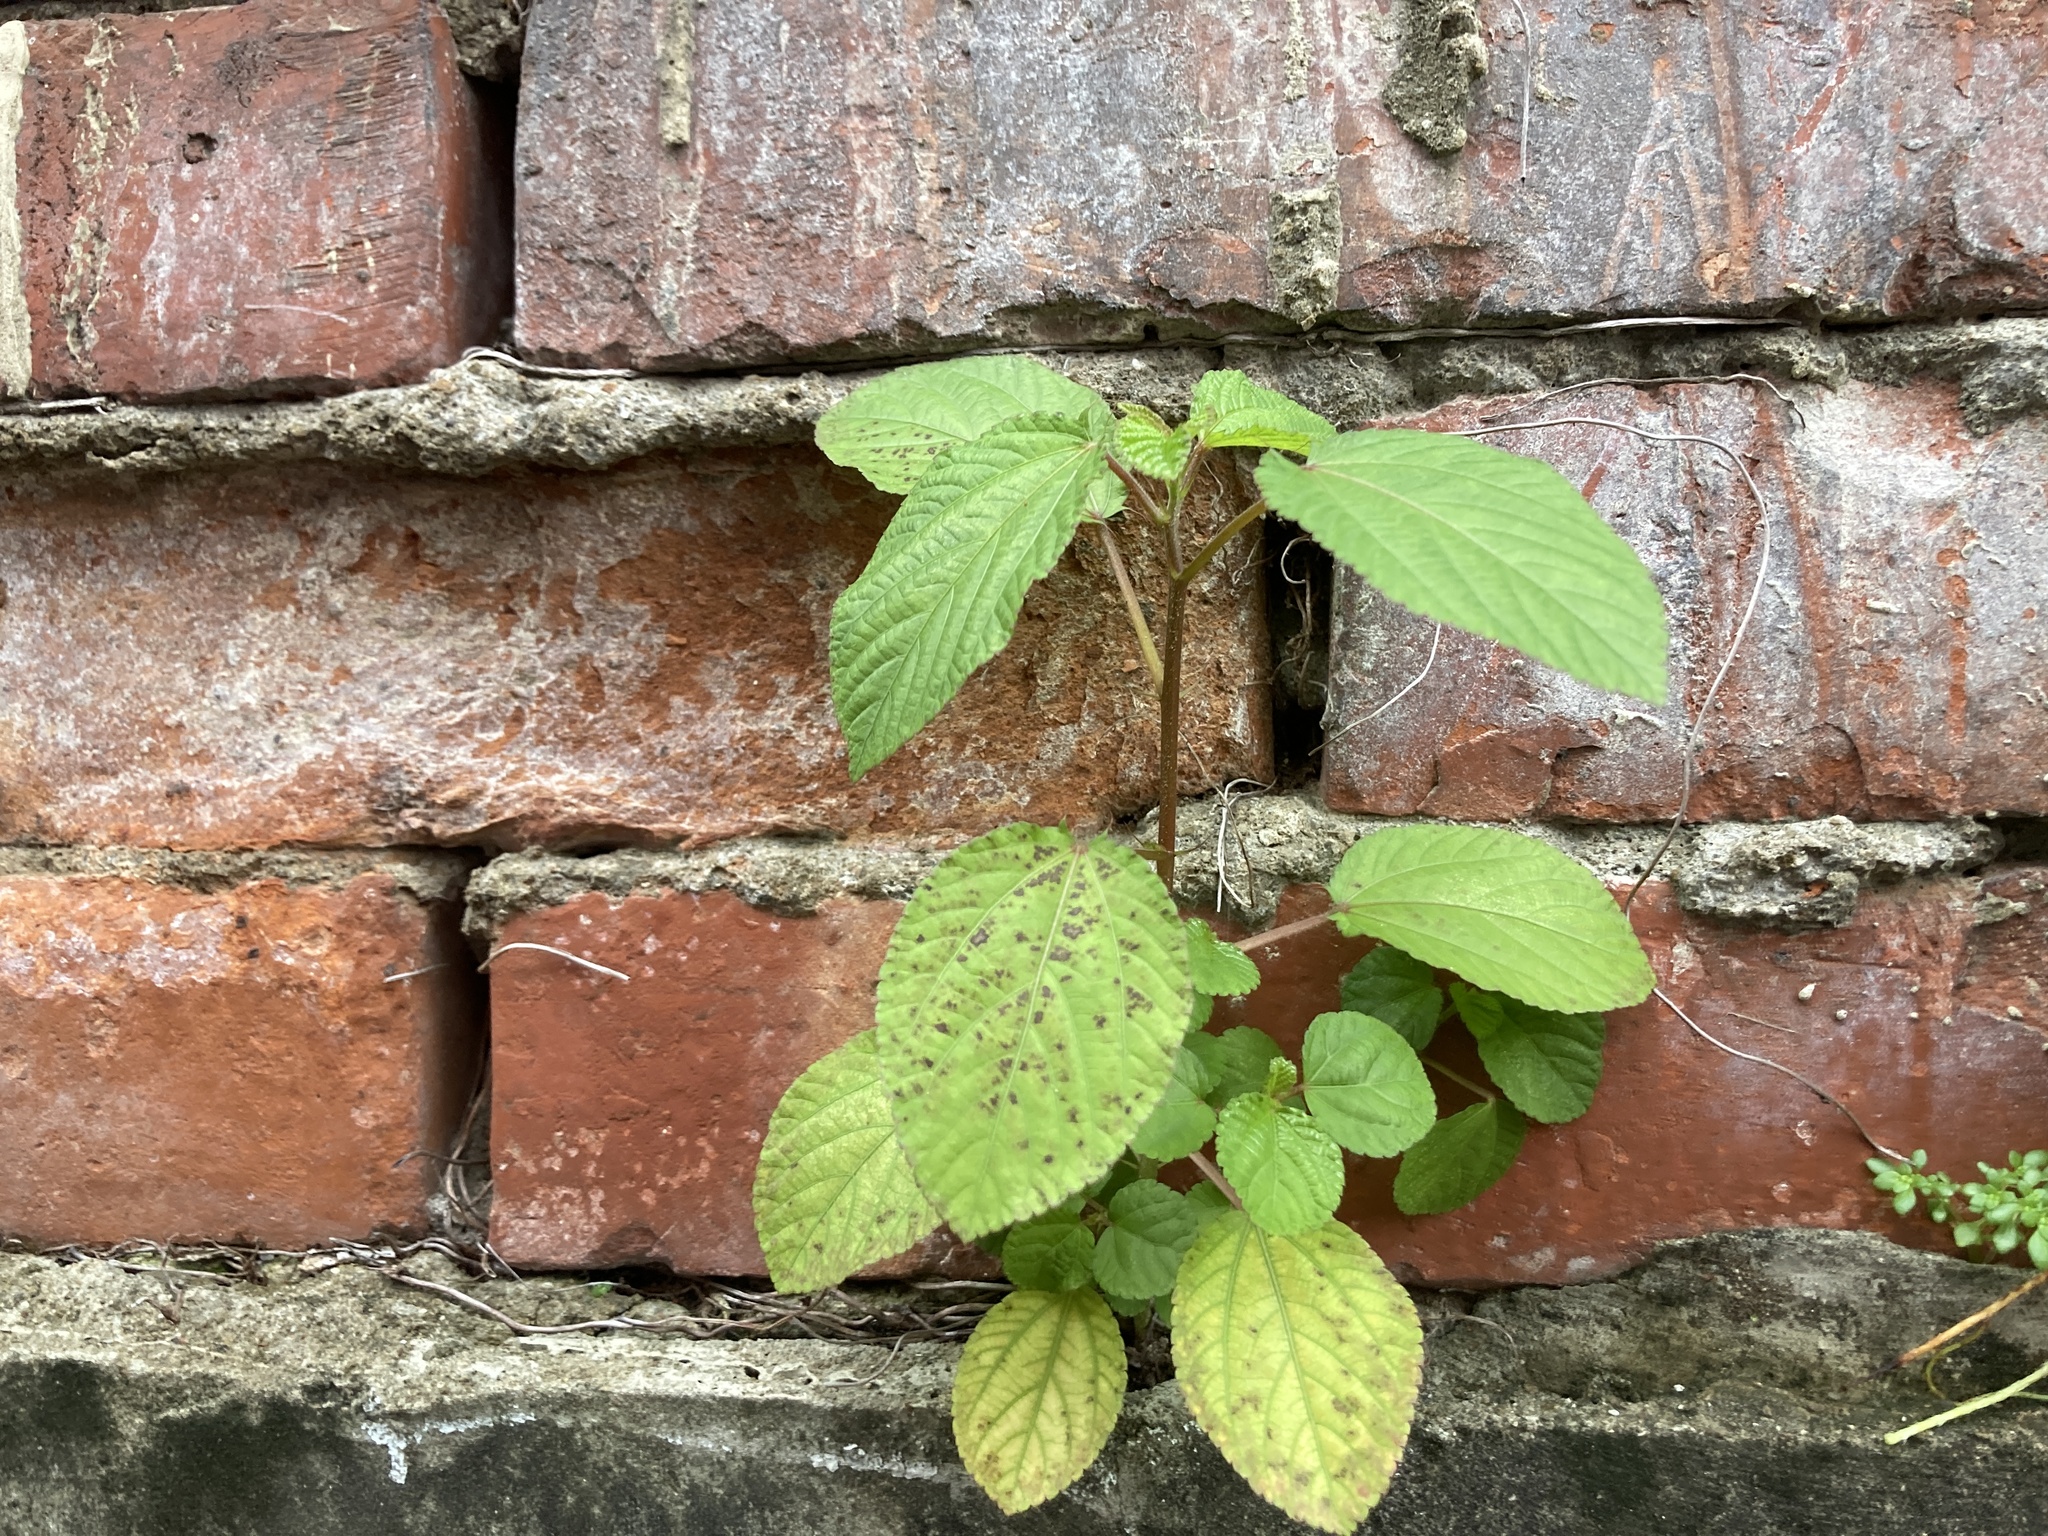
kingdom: Plantae
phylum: Tracheophyta
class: Magnoliopsida
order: Malvales
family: Malvaceae
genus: Corchorus
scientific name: Corchorus aestuans
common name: Jute
